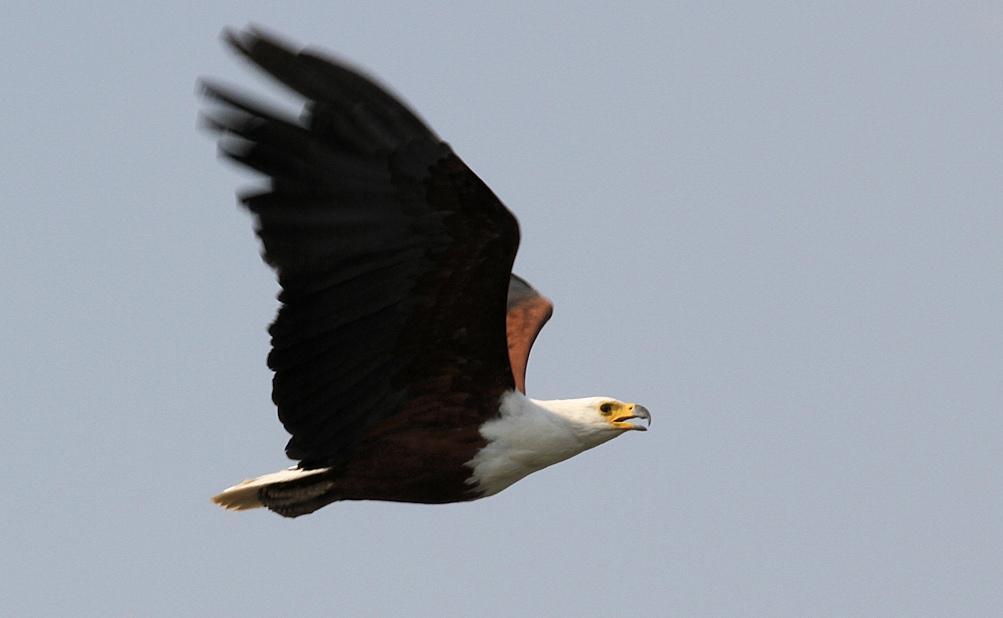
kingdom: Animalia
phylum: Chordata
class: Aves
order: Accipitriformes
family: Accipitridae
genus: Haliaeetus
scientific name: Haliaeetus vocifer
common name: African fish eagle
